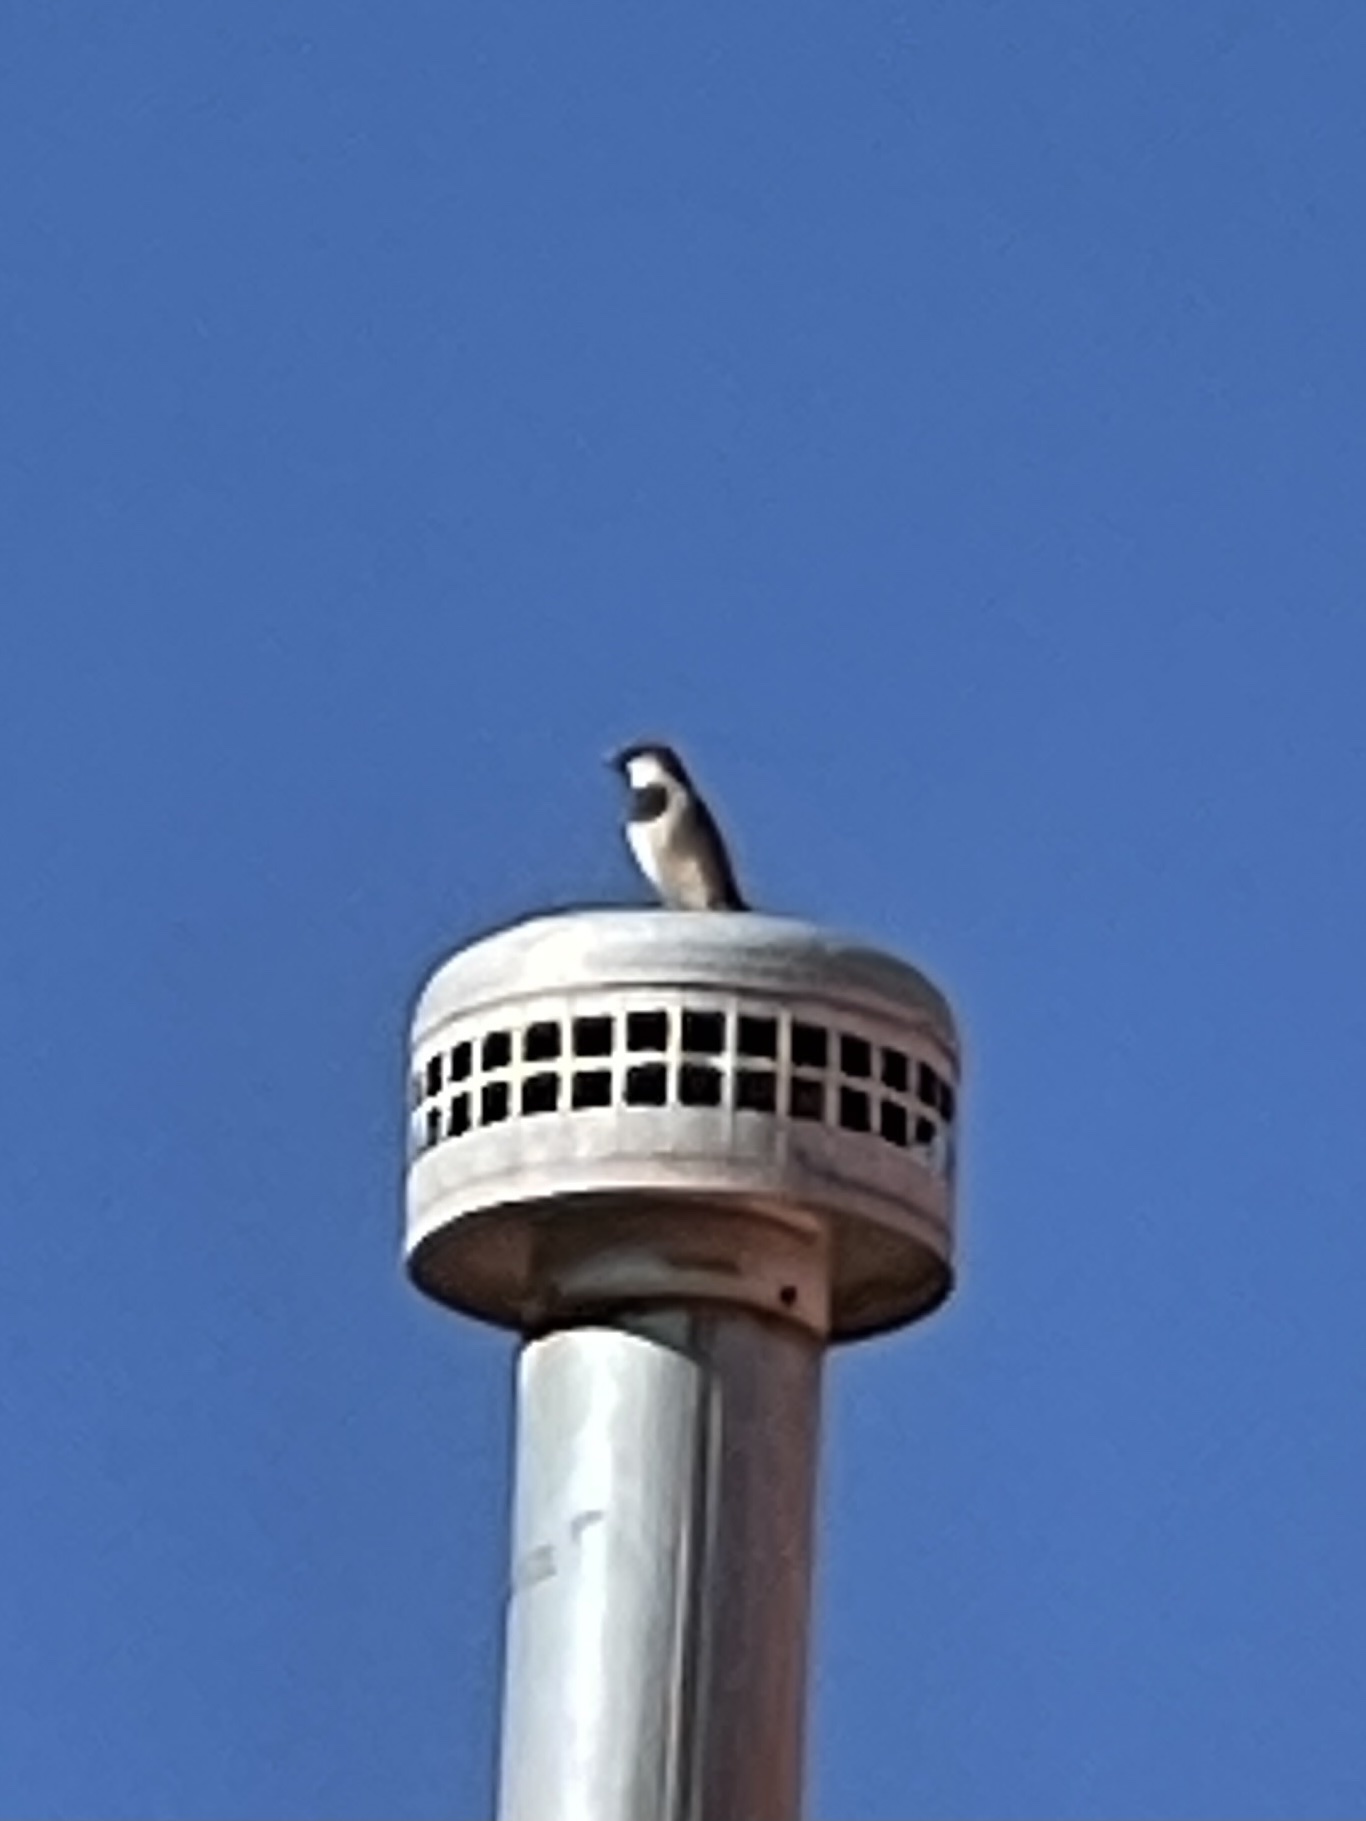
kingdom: Animalia
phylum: Chordata
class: Aves
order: Passeriformes
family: Passeridae
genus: Passer
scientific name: Passer domesticus
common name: House sparrow
